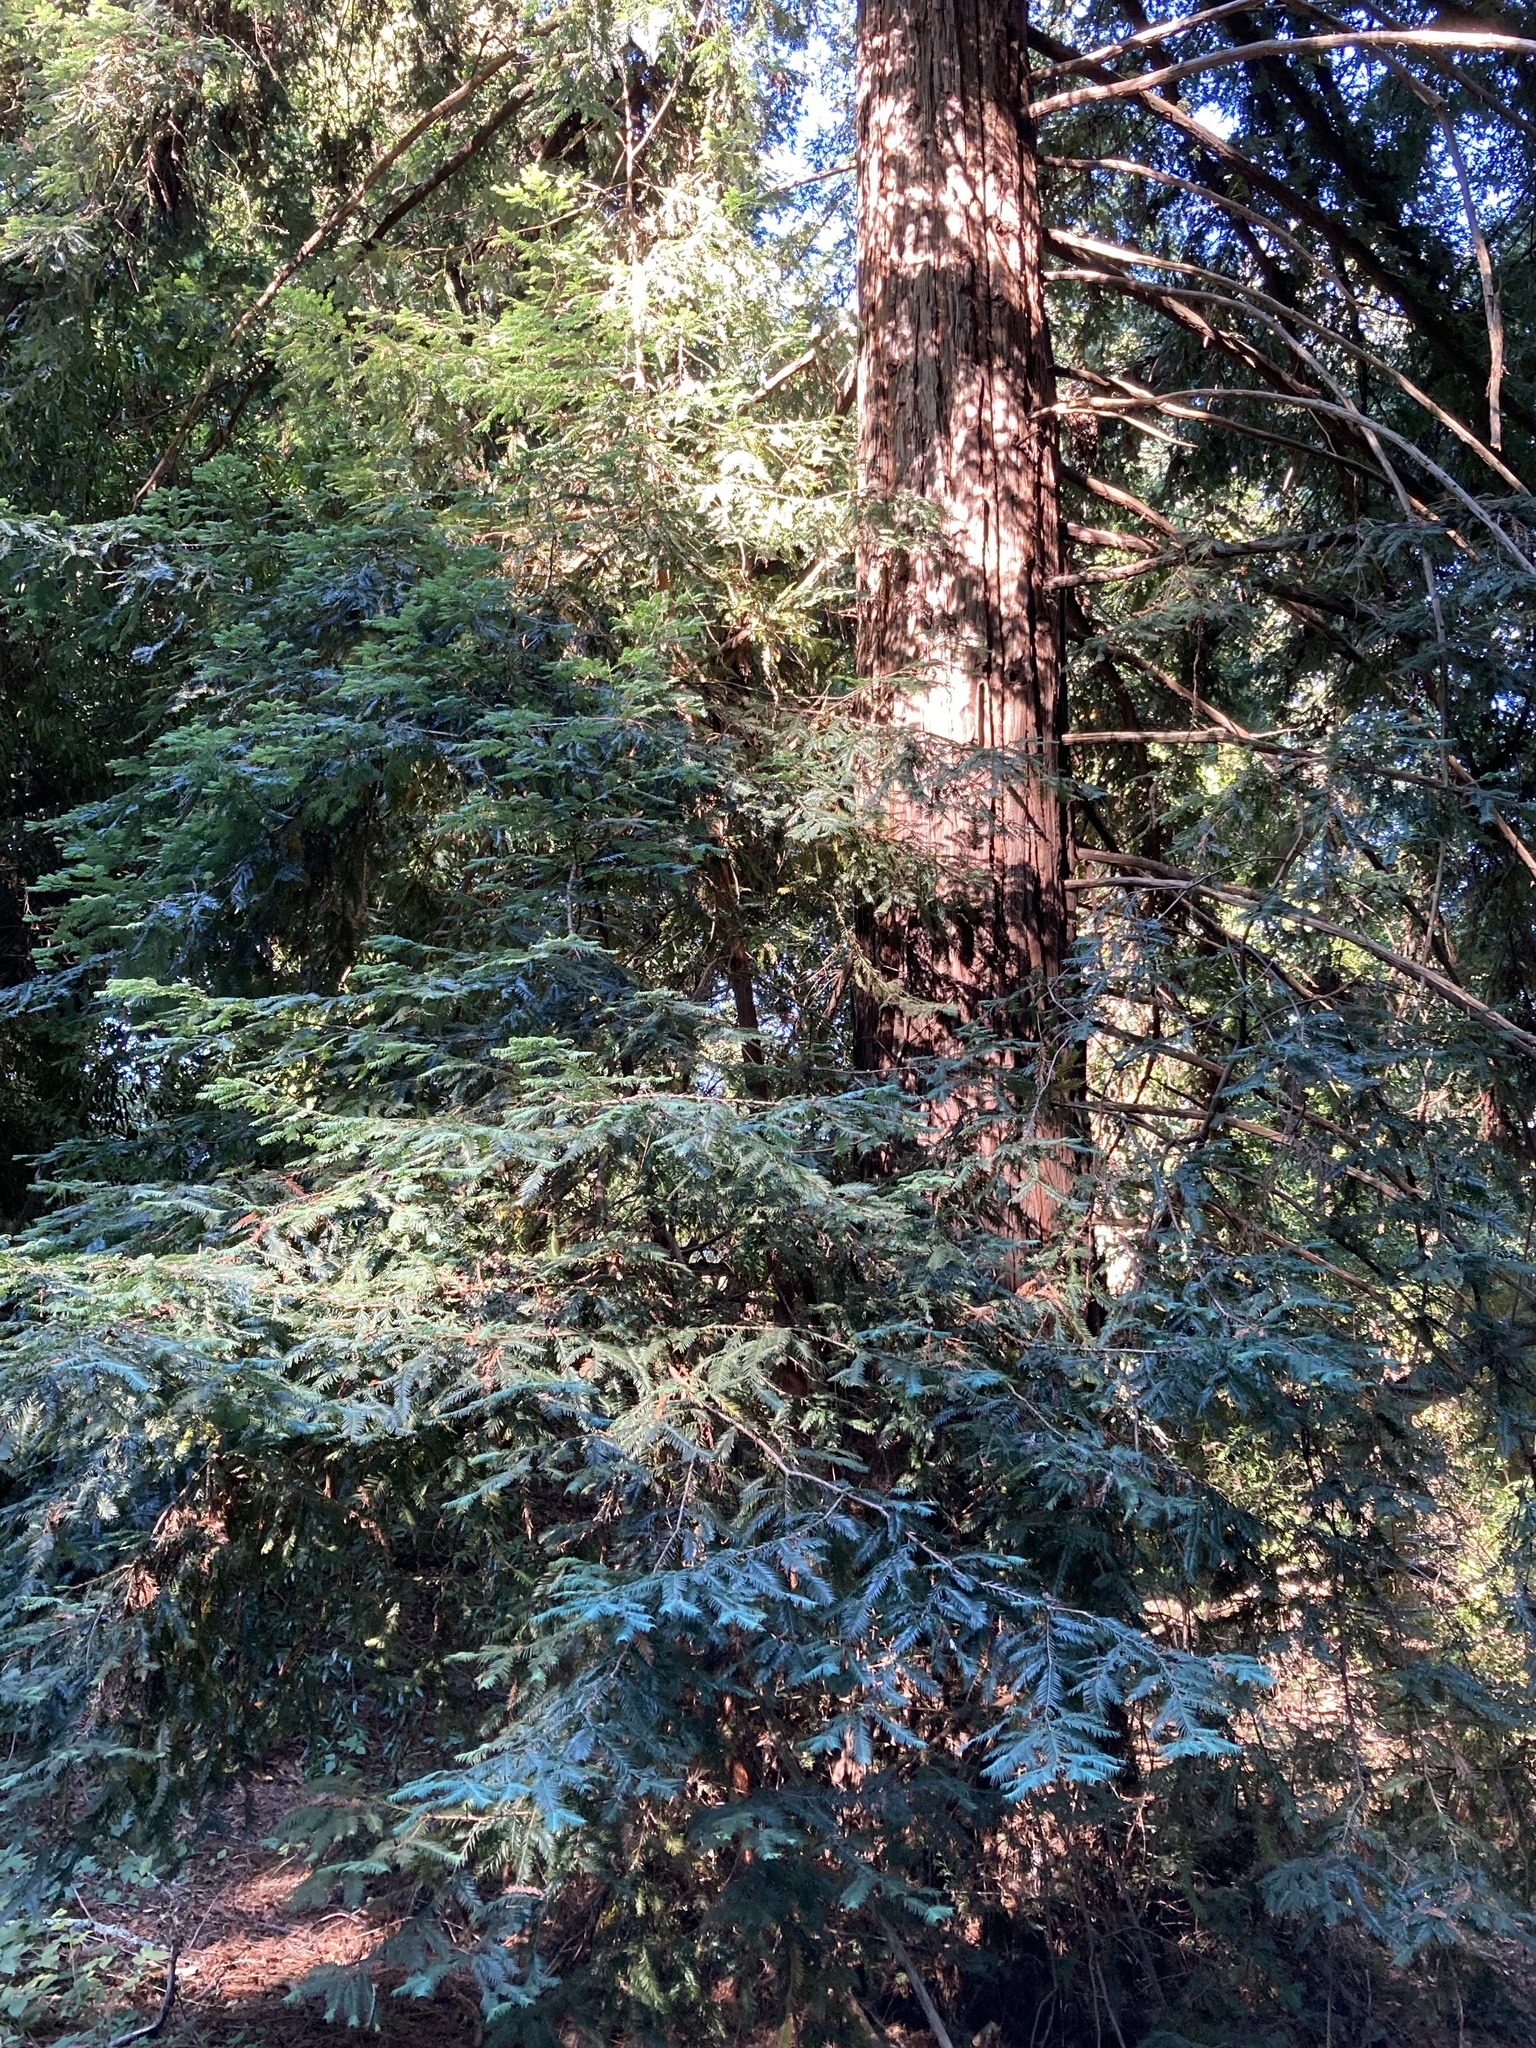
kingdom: Plantae
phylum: Tracheophyta
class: Pinopsida
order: Pinales
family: Cupressaceae
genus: Sequoia
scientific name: Sequoia sempervirens
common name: Coast redwood
